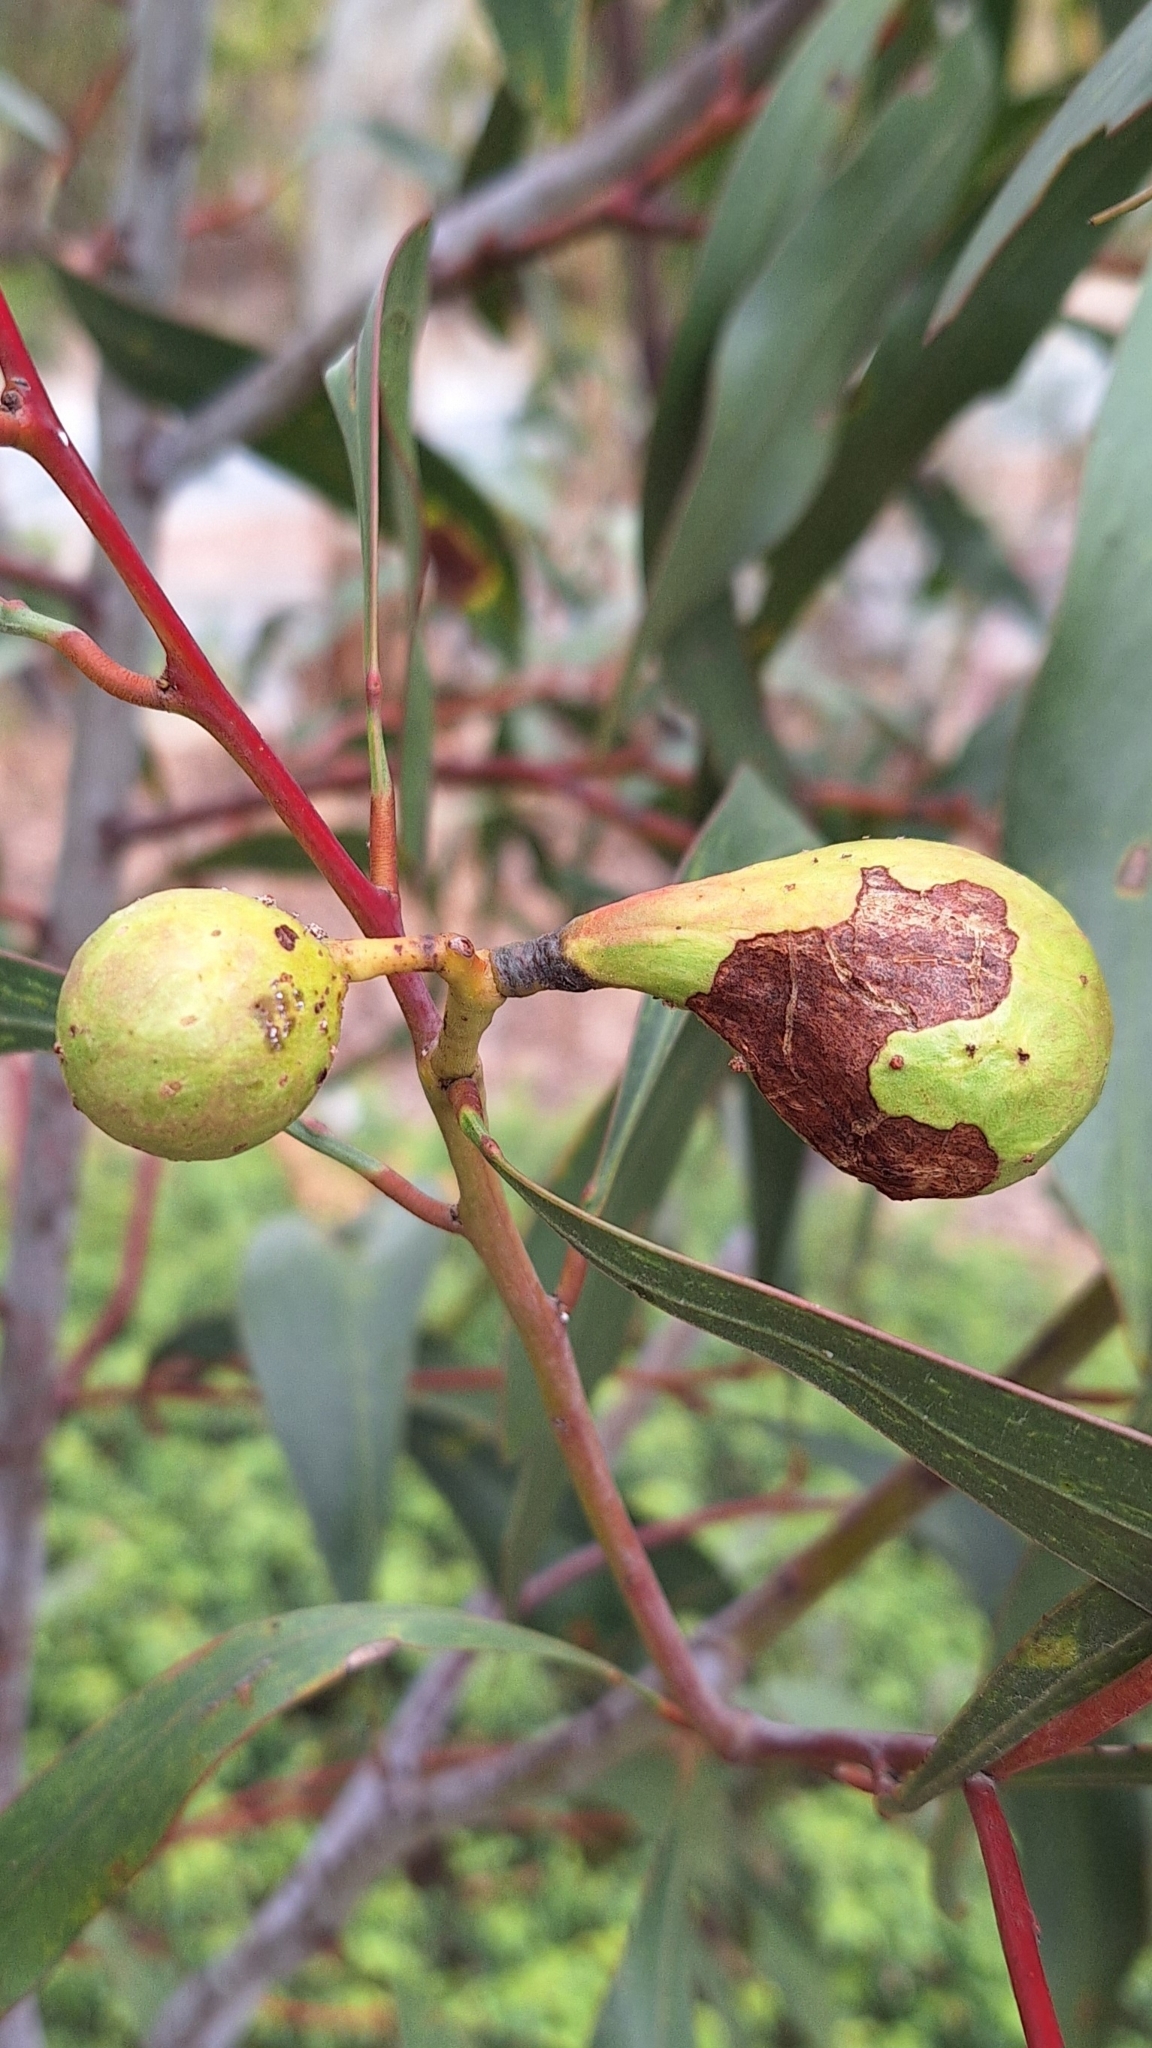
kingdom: Animalia
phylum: Arthropoda
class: Insecta
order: Hymenoptera
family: Pteromalidae
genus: Trichilogaster
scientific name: Trichilogaster signiventris
